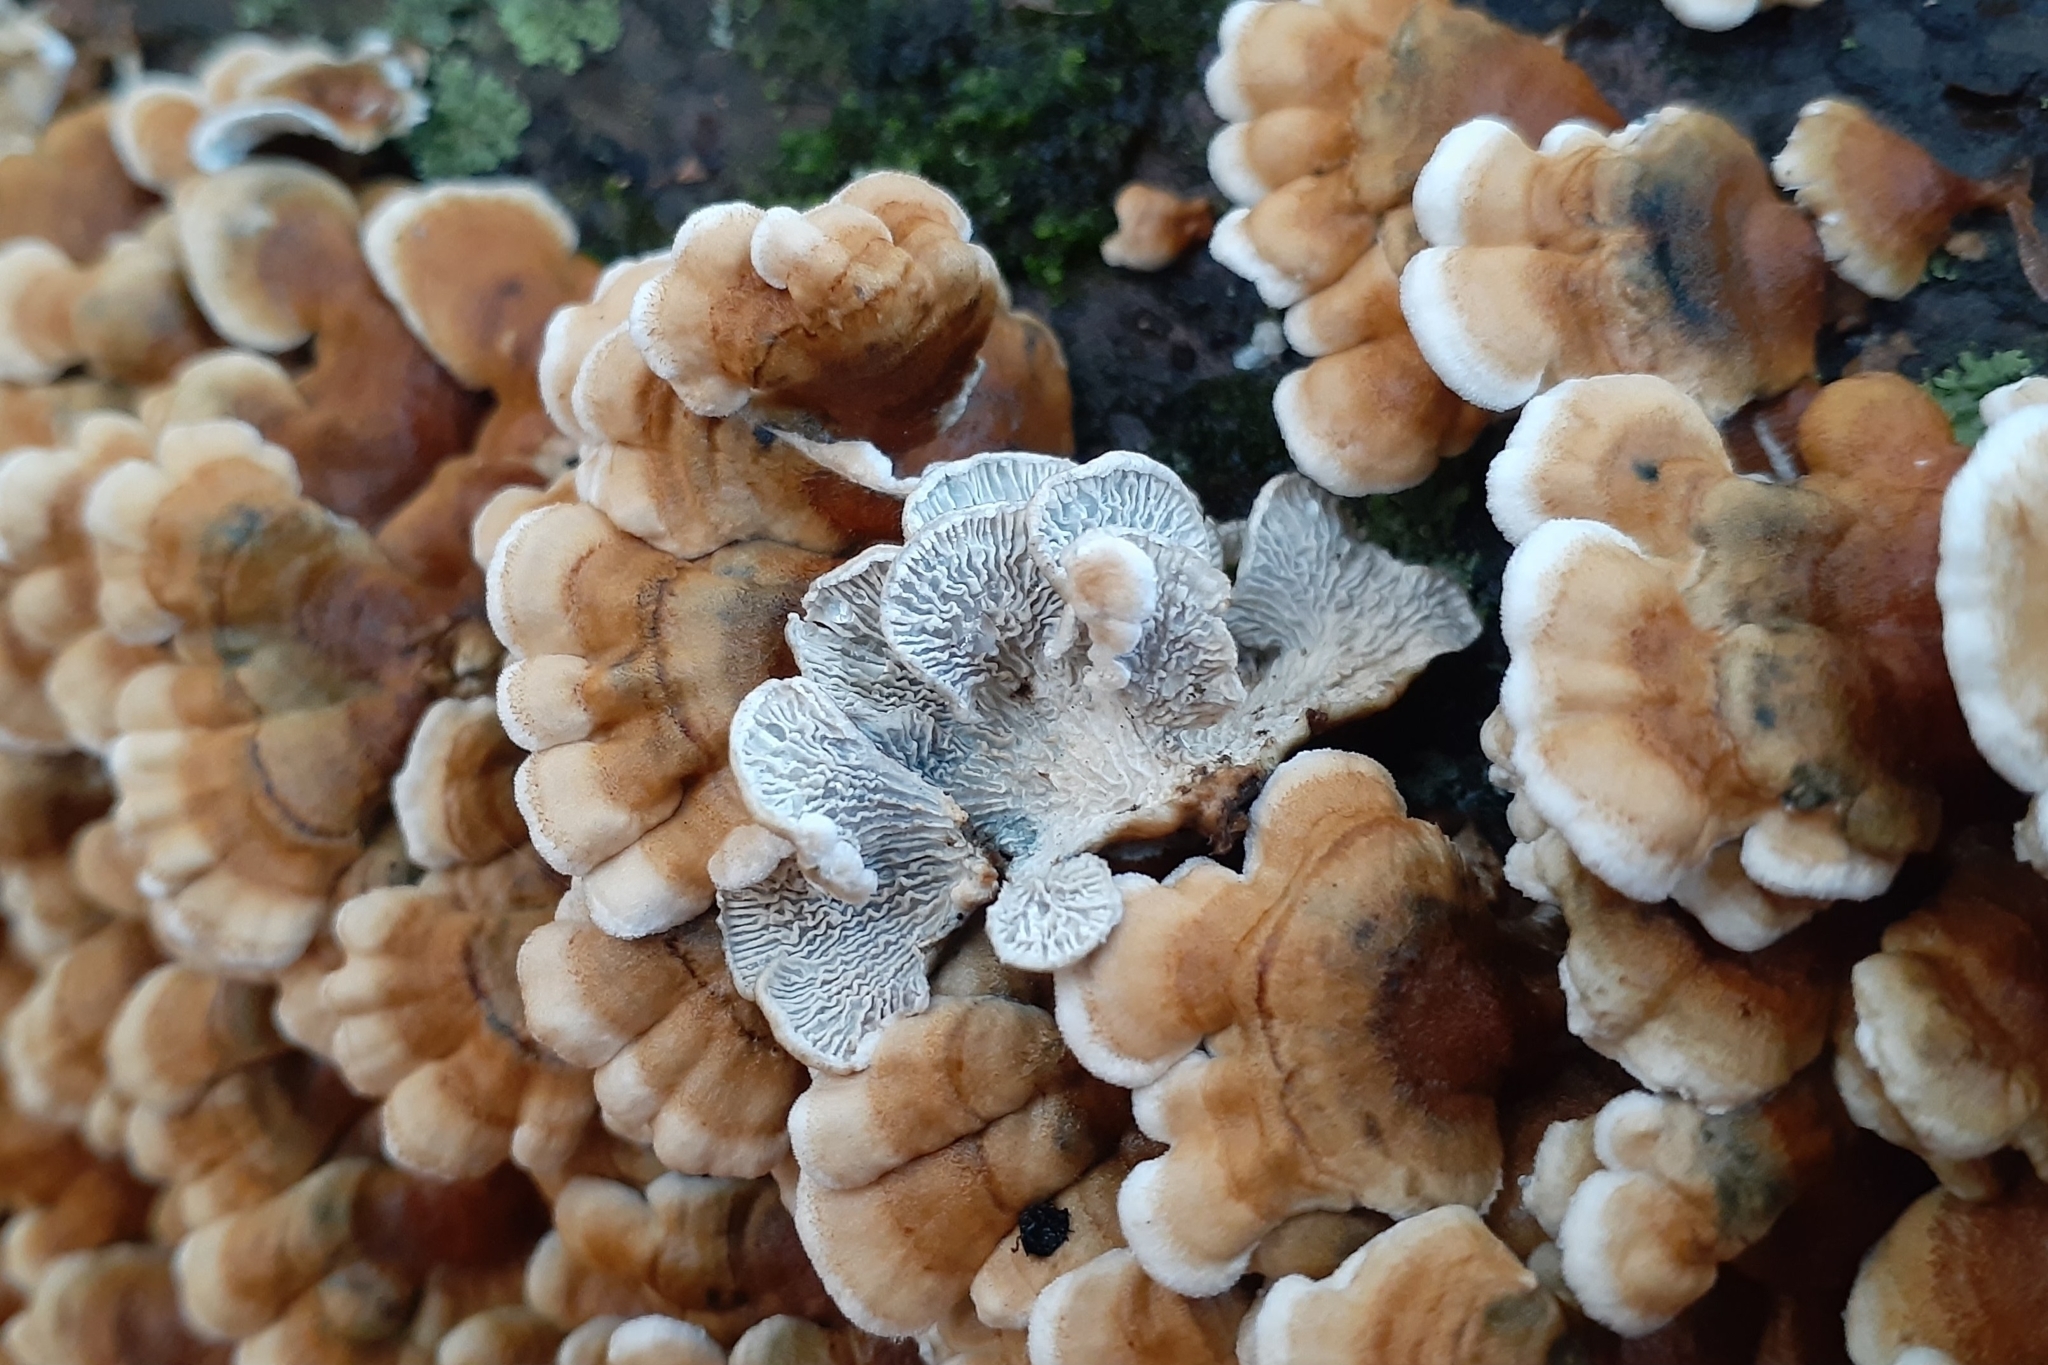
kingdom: Fungi
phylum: Basidiomycota
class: Agaricomycetes
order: Amylocorticiales
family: Amylocorticiaceae
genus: Plicaturopsis
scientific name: Plicaturopsis crispa
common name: Crimped gill
